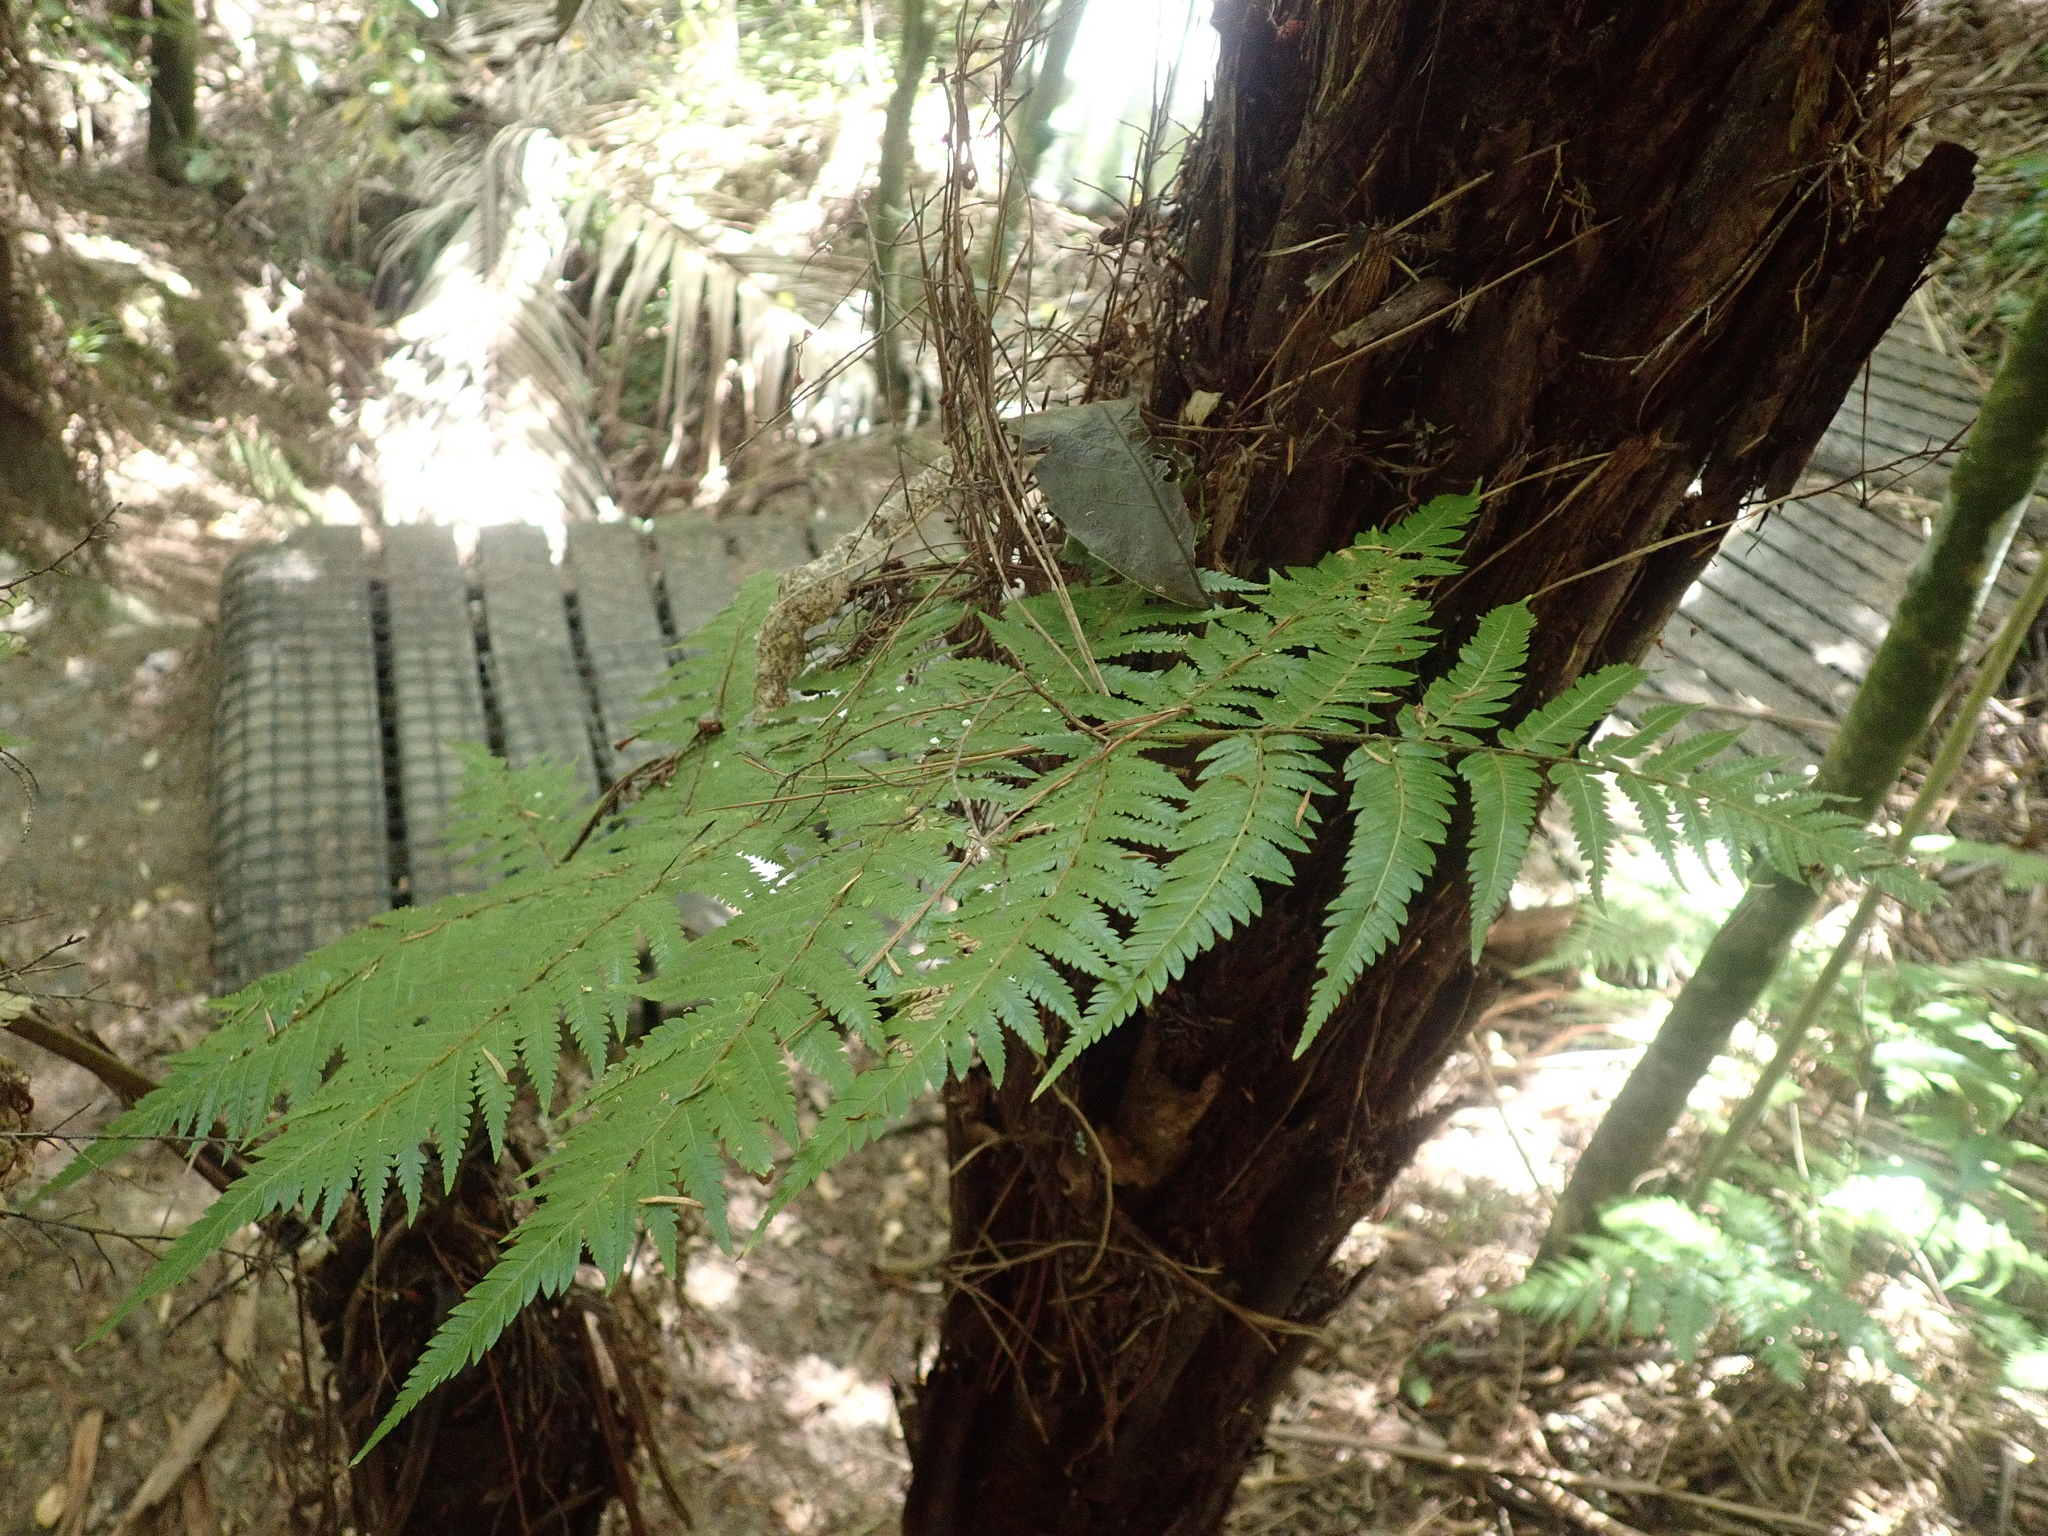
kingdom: Plantae
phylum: Tracheophyta
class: Polypodiopsida
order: Cyatheales
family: Cyatheaceae
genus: Alsophila
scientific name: Alsophila dealbata
